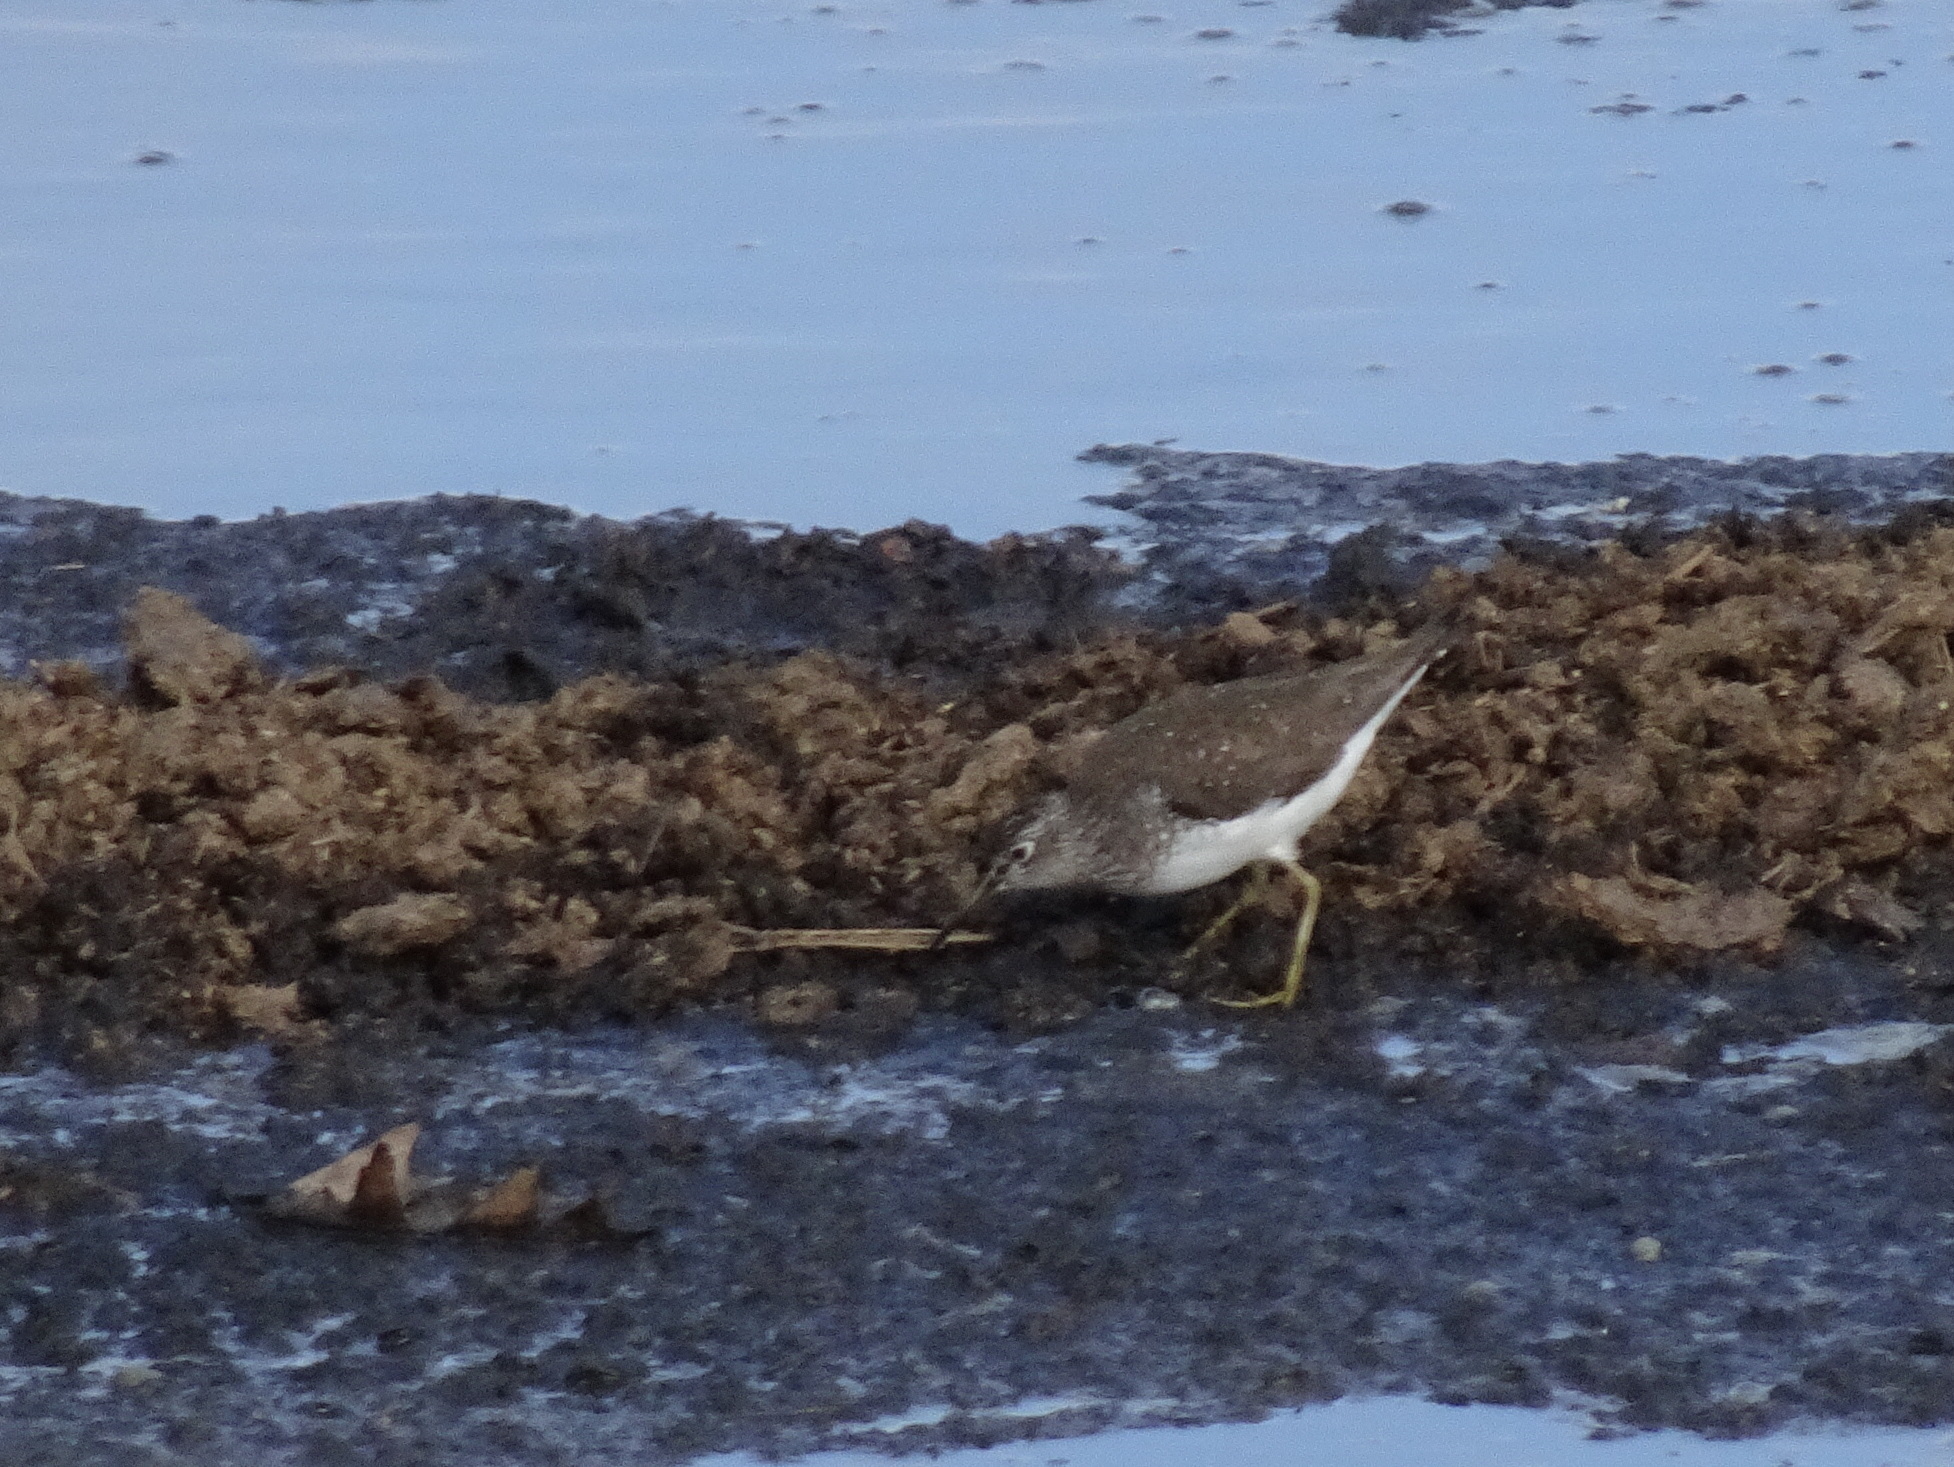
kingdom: Animalia
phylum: Chordata
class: Aves
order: Charadriiformes
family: Scolopacidae
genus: Tringa
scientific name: Tringa solitaria
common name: Solitary sandpiper
